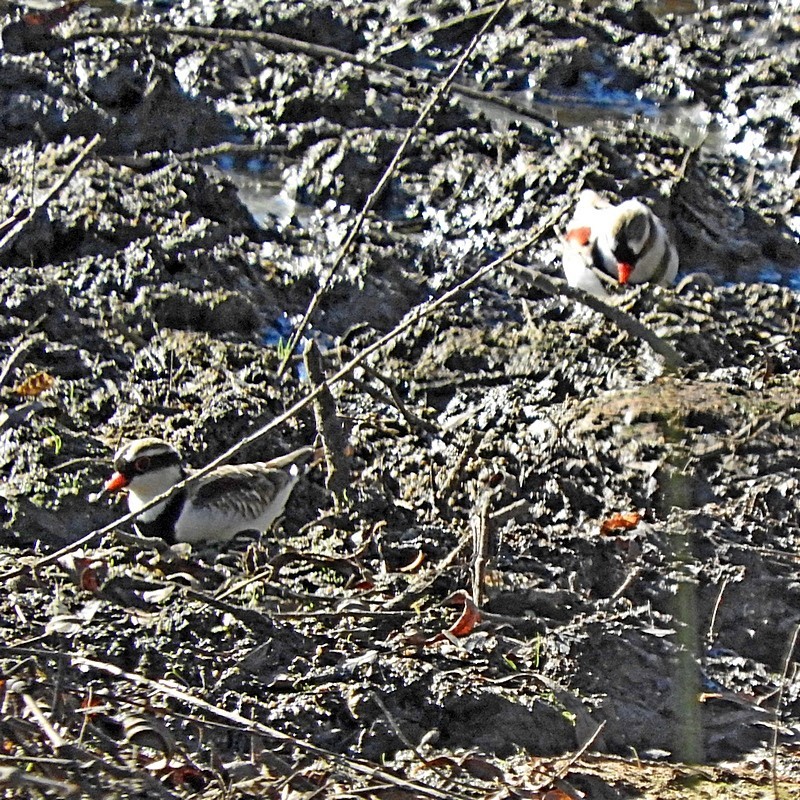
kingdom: Animalia
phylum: Chordata
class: Aves
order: Charadriiformes
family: Charadriidae
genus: Elseyornis
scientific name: Elseyornis melanops
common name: Black-fronted dotterel
